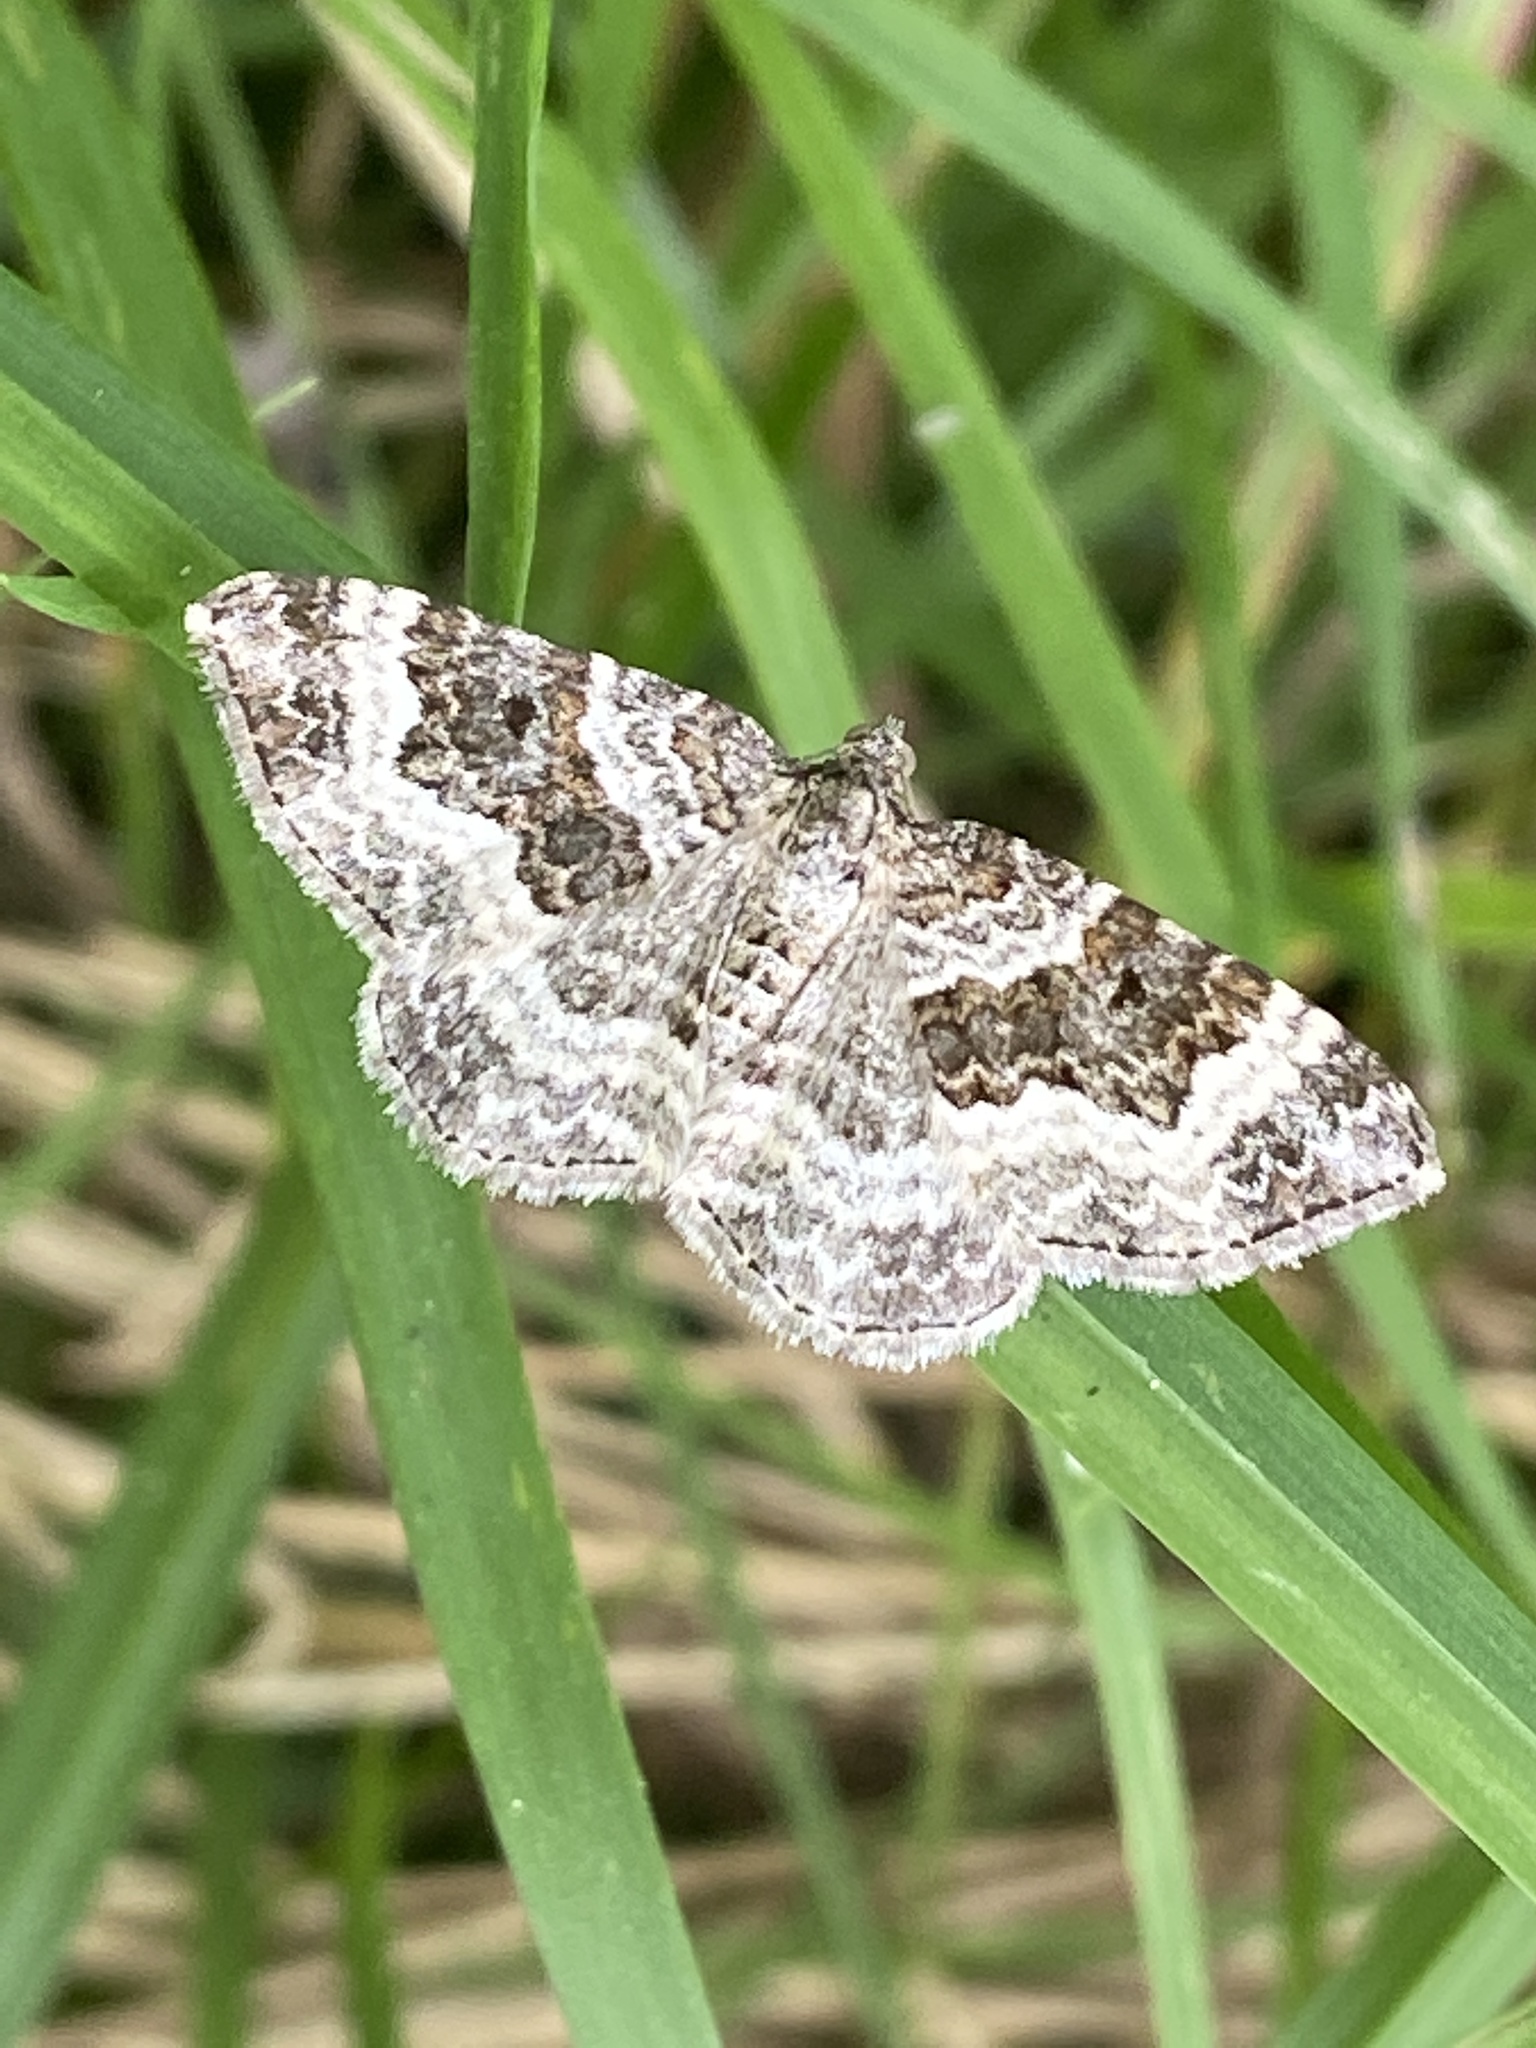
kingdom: Animalia
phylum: Arthropoda
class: Insecta
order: Lepidoptera
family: Geometridae
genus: Epirrhoe
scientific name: Epirrhoe alternata
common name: Common carpet
